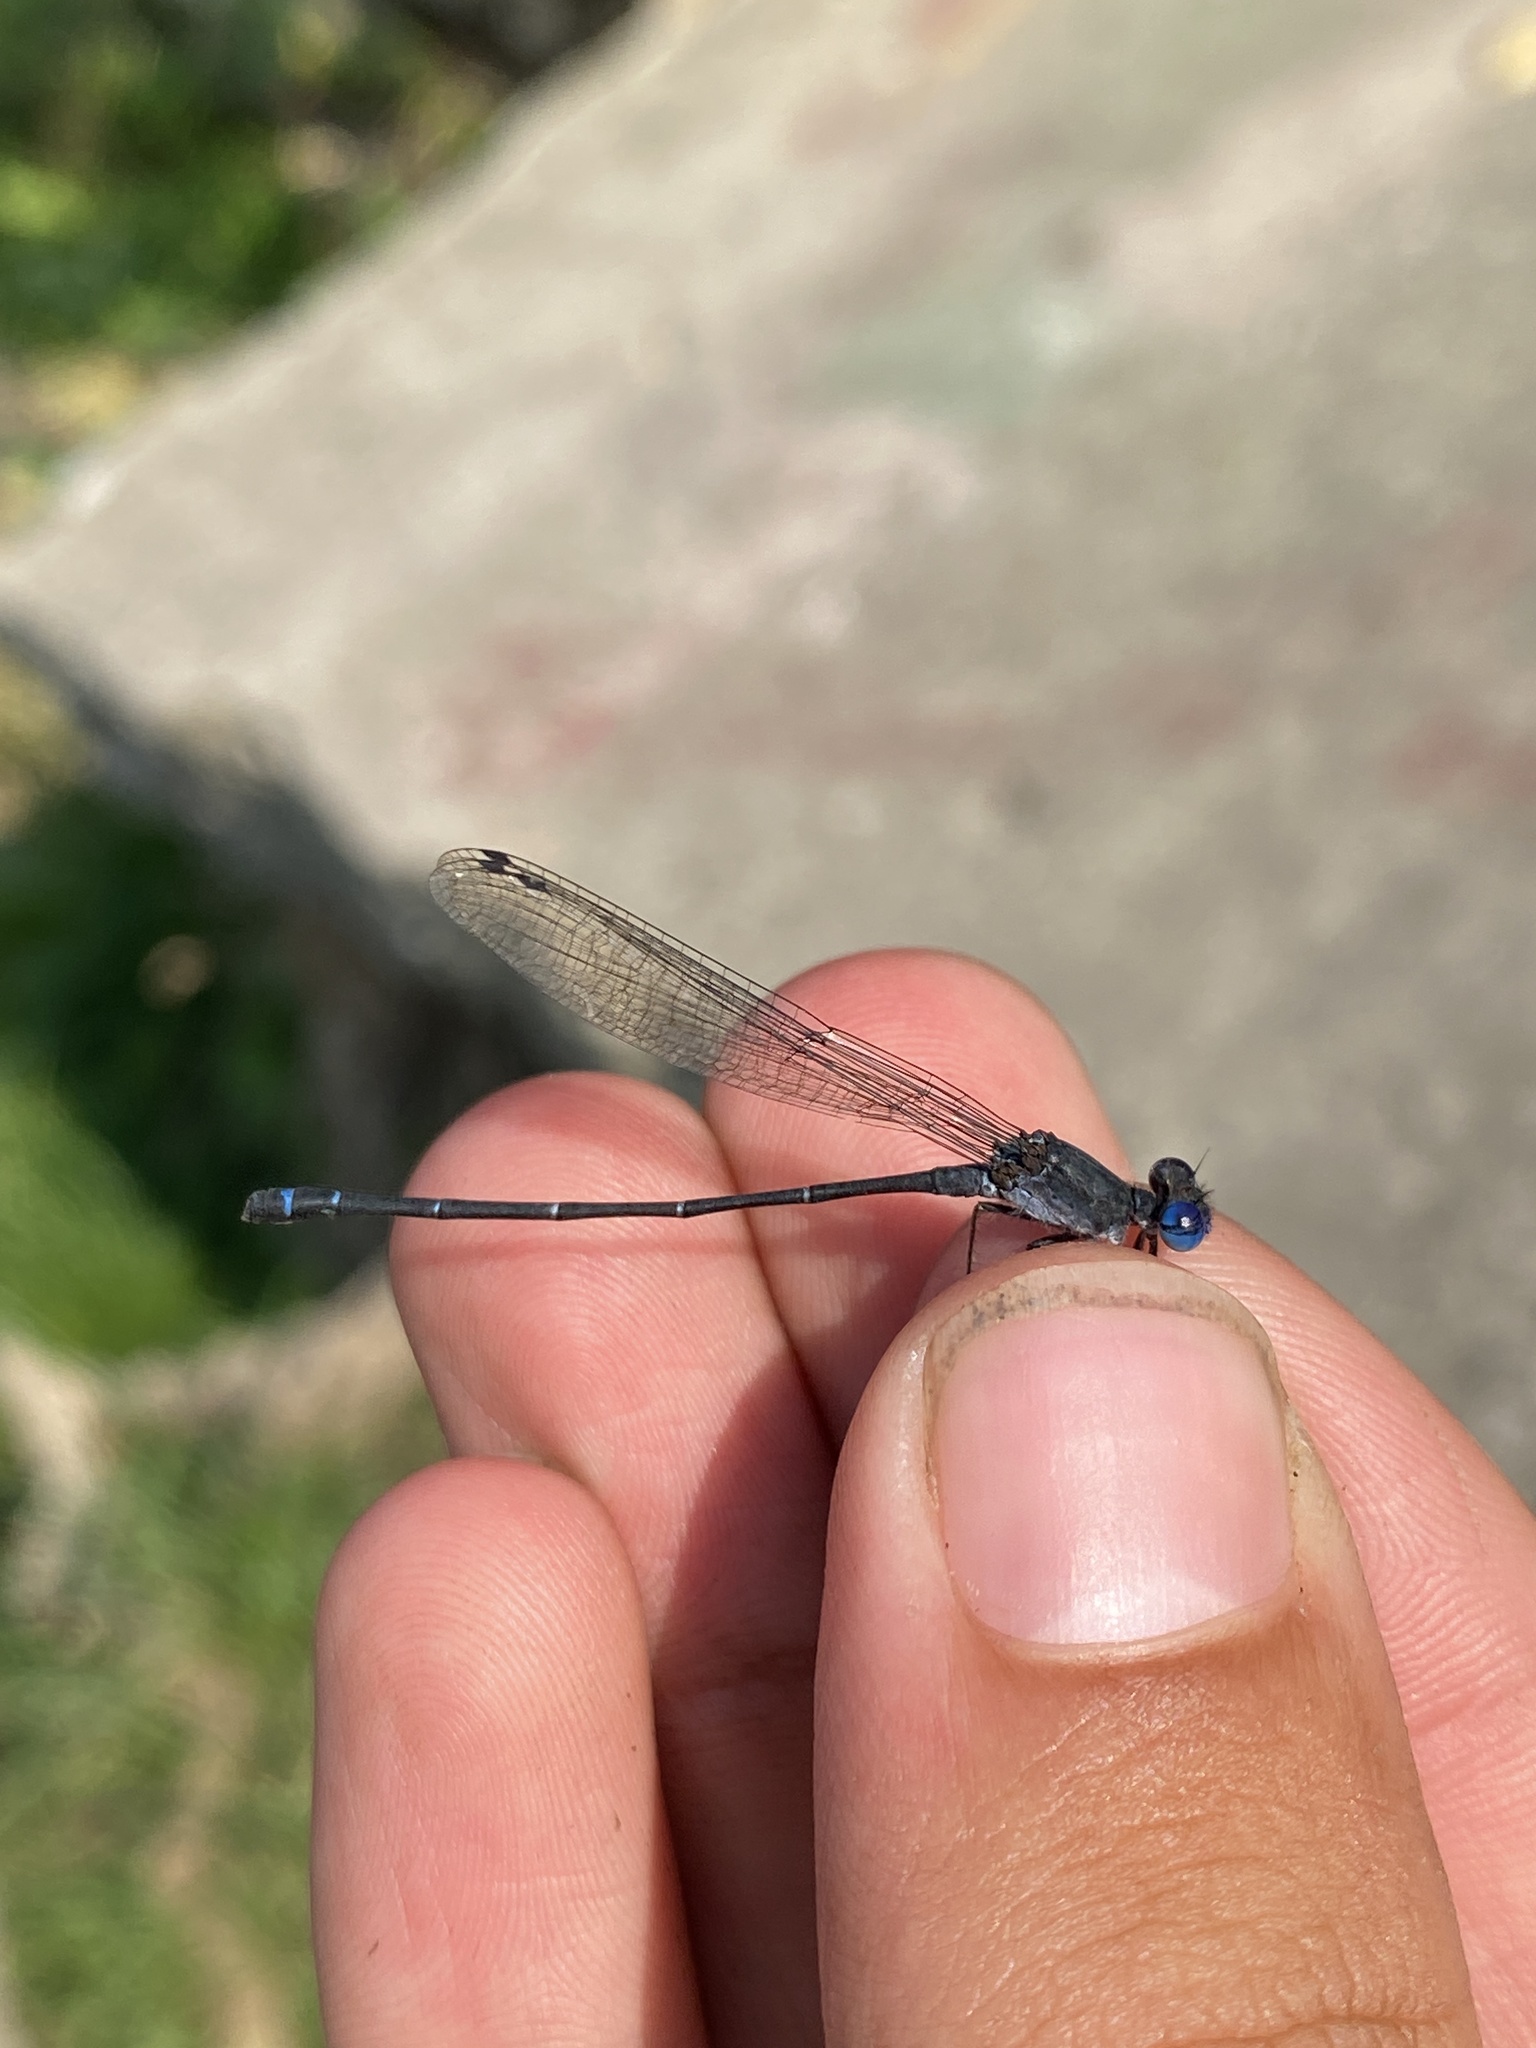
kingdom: Animalia
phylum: Arthropoda
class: Insecta
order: Odonata
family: Coenagrionidae
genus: Argia
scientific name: Argia translata
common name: Dusky dancer
